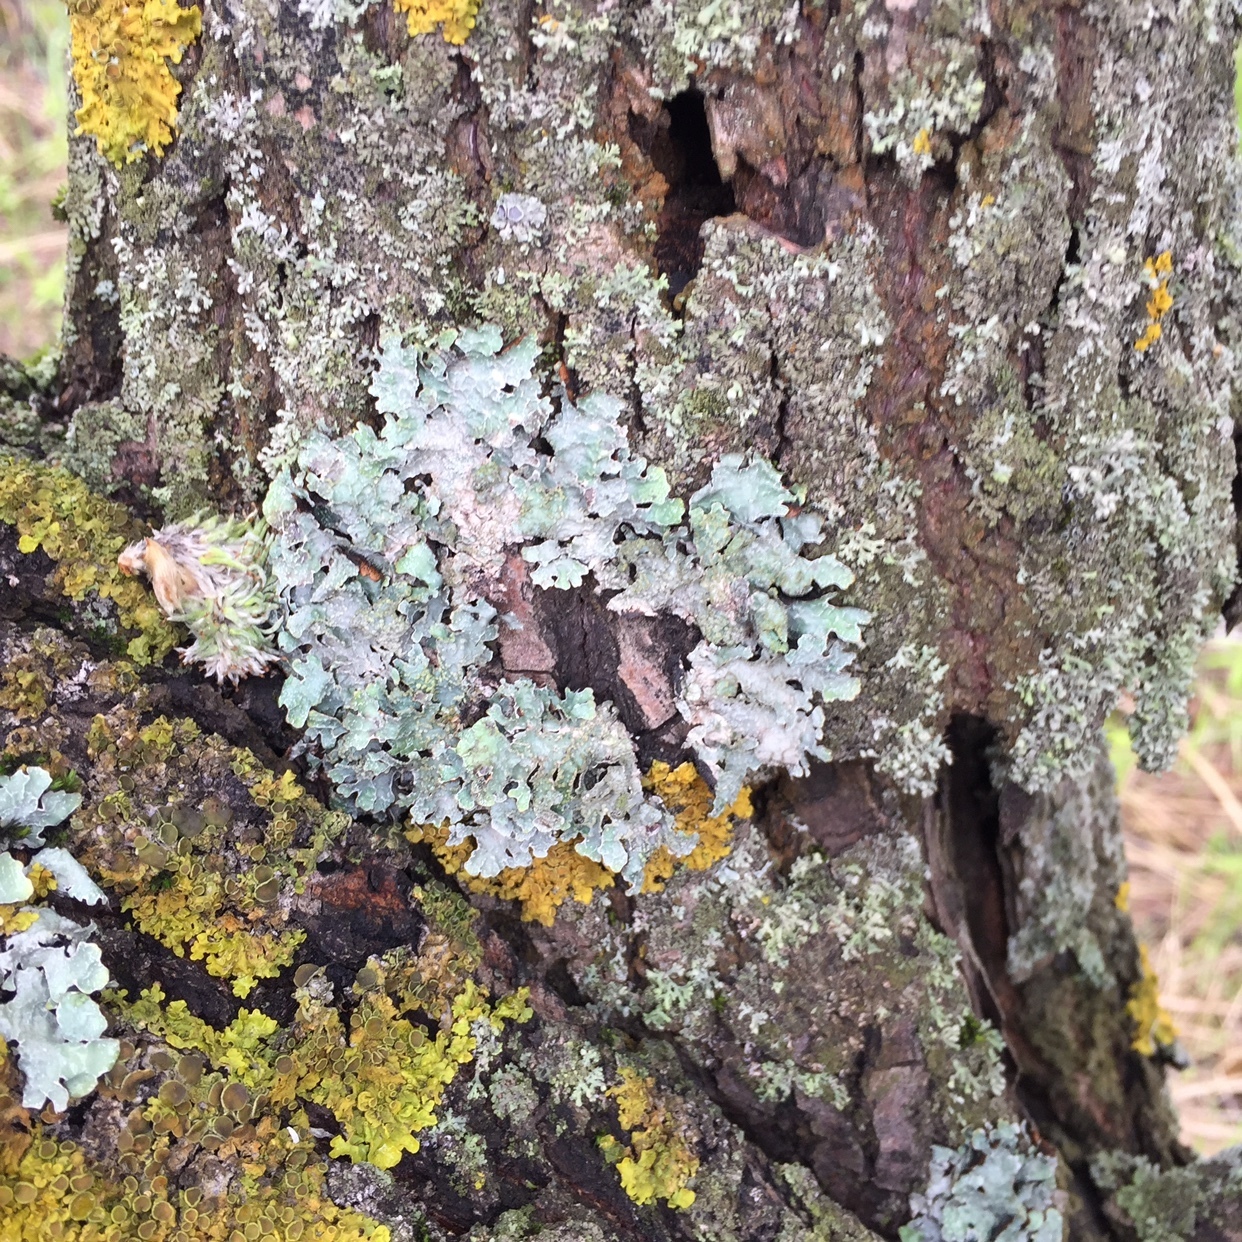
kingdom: Fungi
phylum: Ascomycota
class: Lecanoromycetes
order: Lecanorales
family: Parmeliaceae
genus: Parmelia
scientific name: Parmelia sulcata
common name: Netted shield lichen
